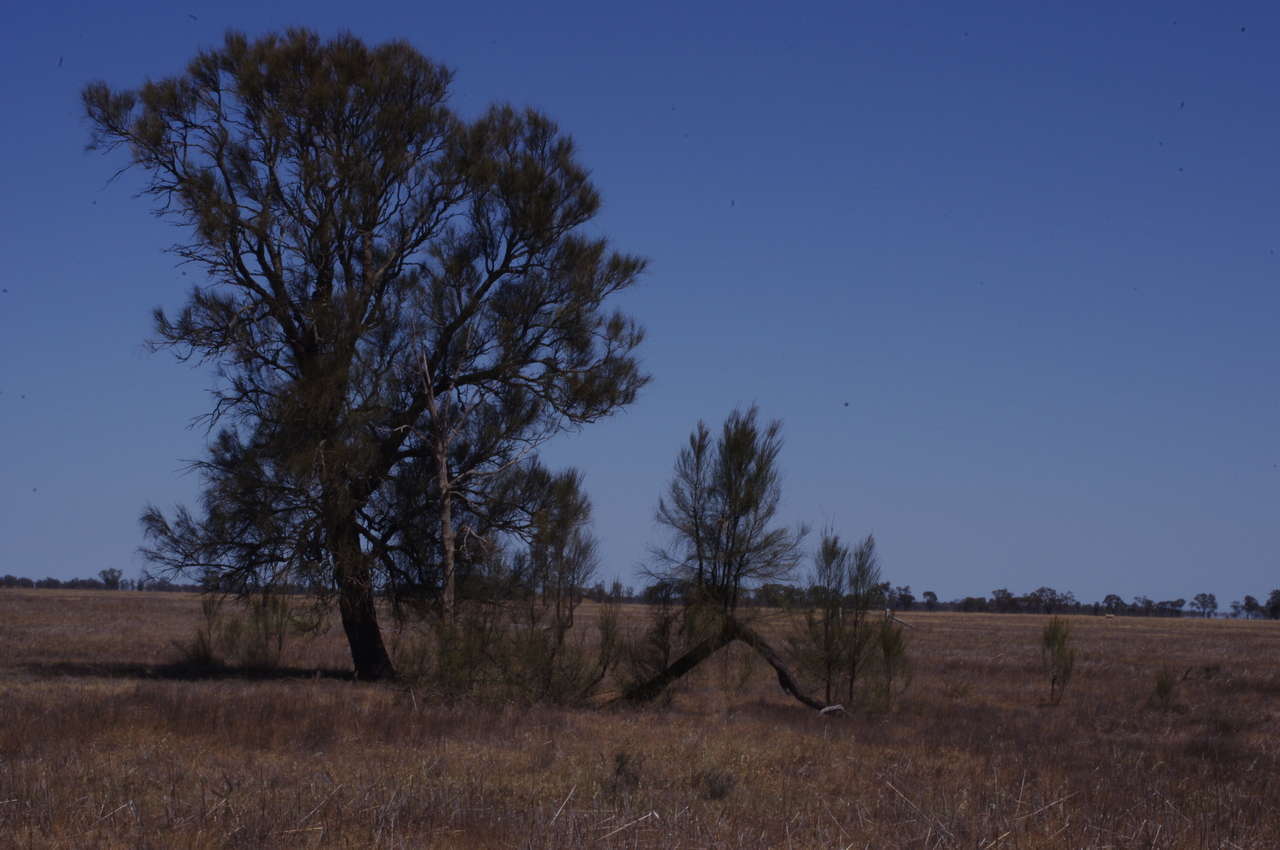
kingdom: Plantae
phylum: Tracheophyta
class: Magnoliopsida
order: Fagales
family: Casuarinaceae
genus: Allocasuarina
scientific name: Allocasuarina luehmannii
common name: Bull-oak
